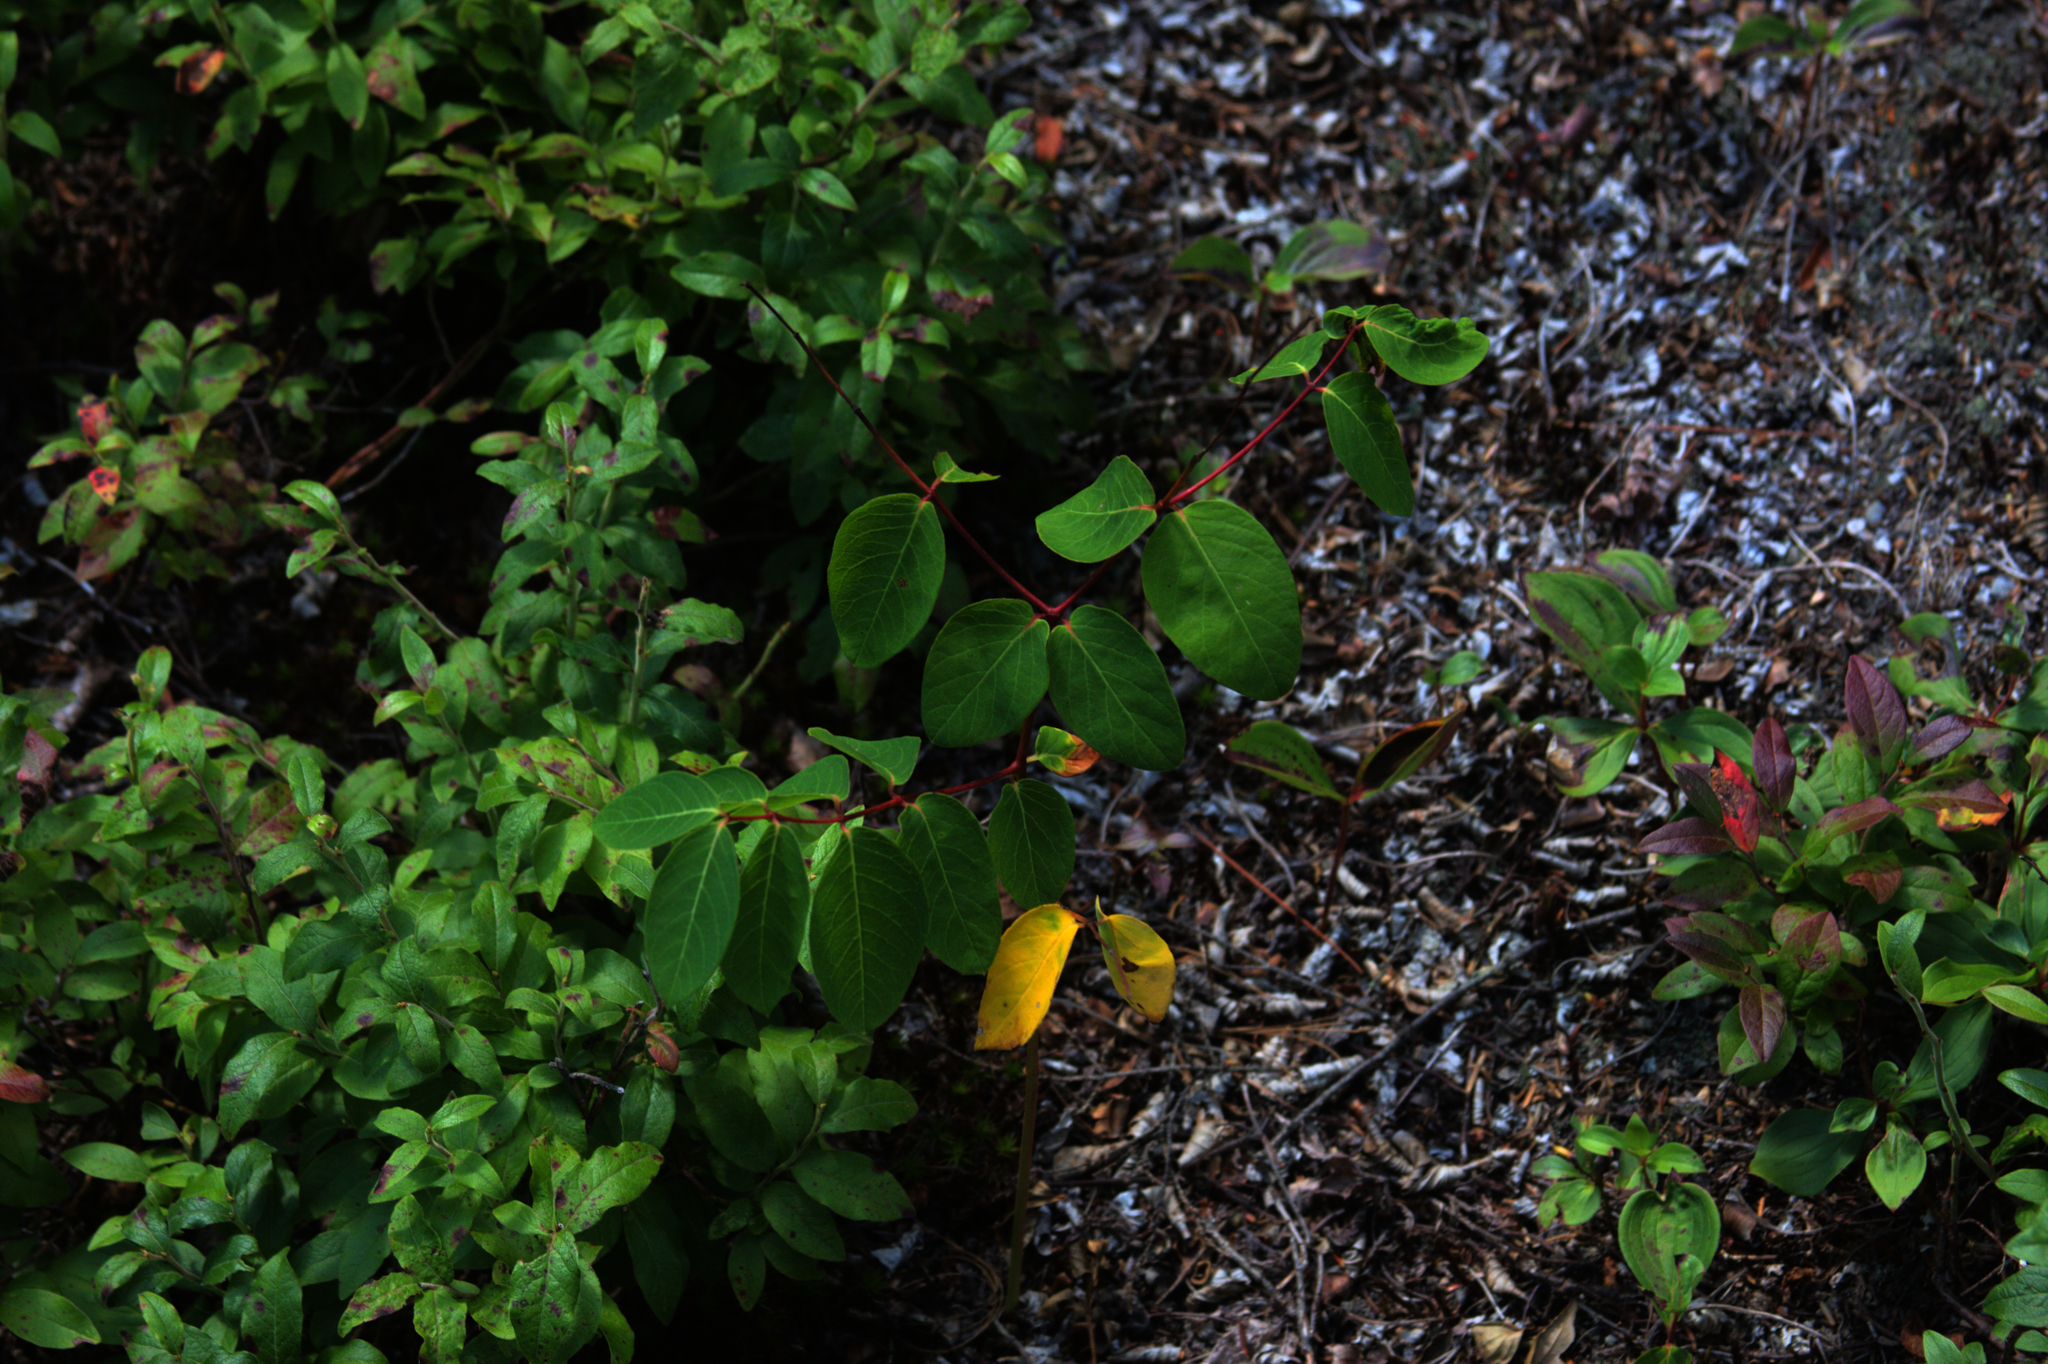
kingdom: Plantae
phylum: Tracheophyta
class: Magnoliopsida
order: Gentianales
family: Apocynaceae
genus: Apocynum
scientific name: Apocynum androsaemifolium
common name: Spreading dogbane
